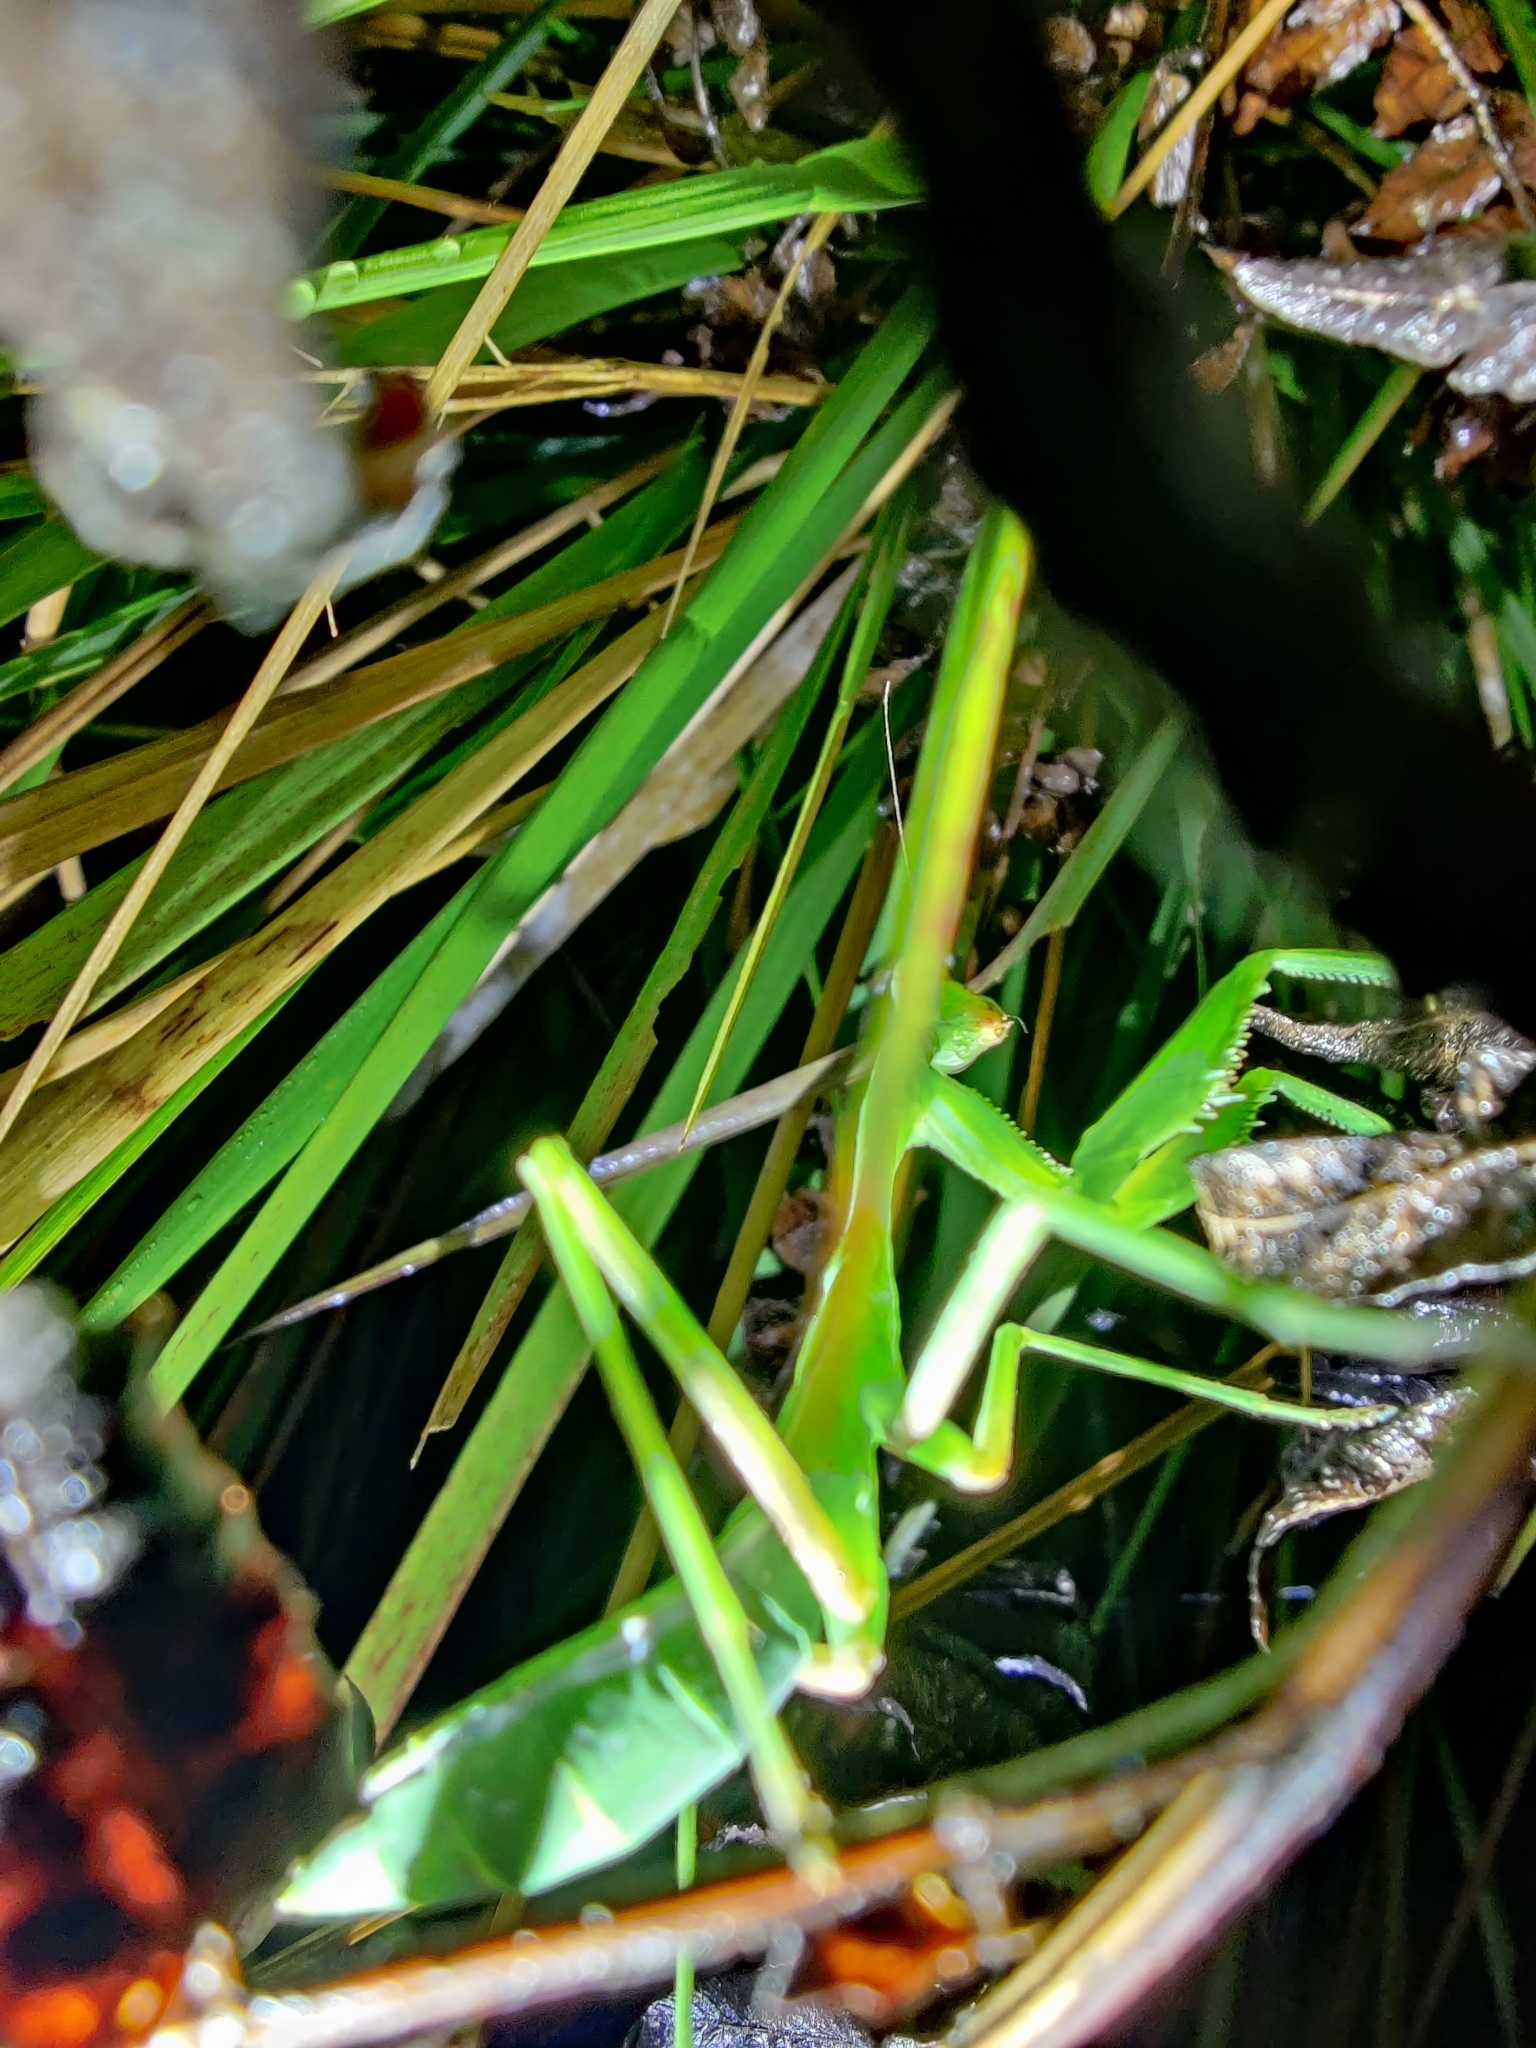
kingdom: Animalia
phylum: Arthropoda
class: Insecta
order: Mantodea
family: Mantidae
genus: Hierodula
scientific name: Hierodula membranacea
